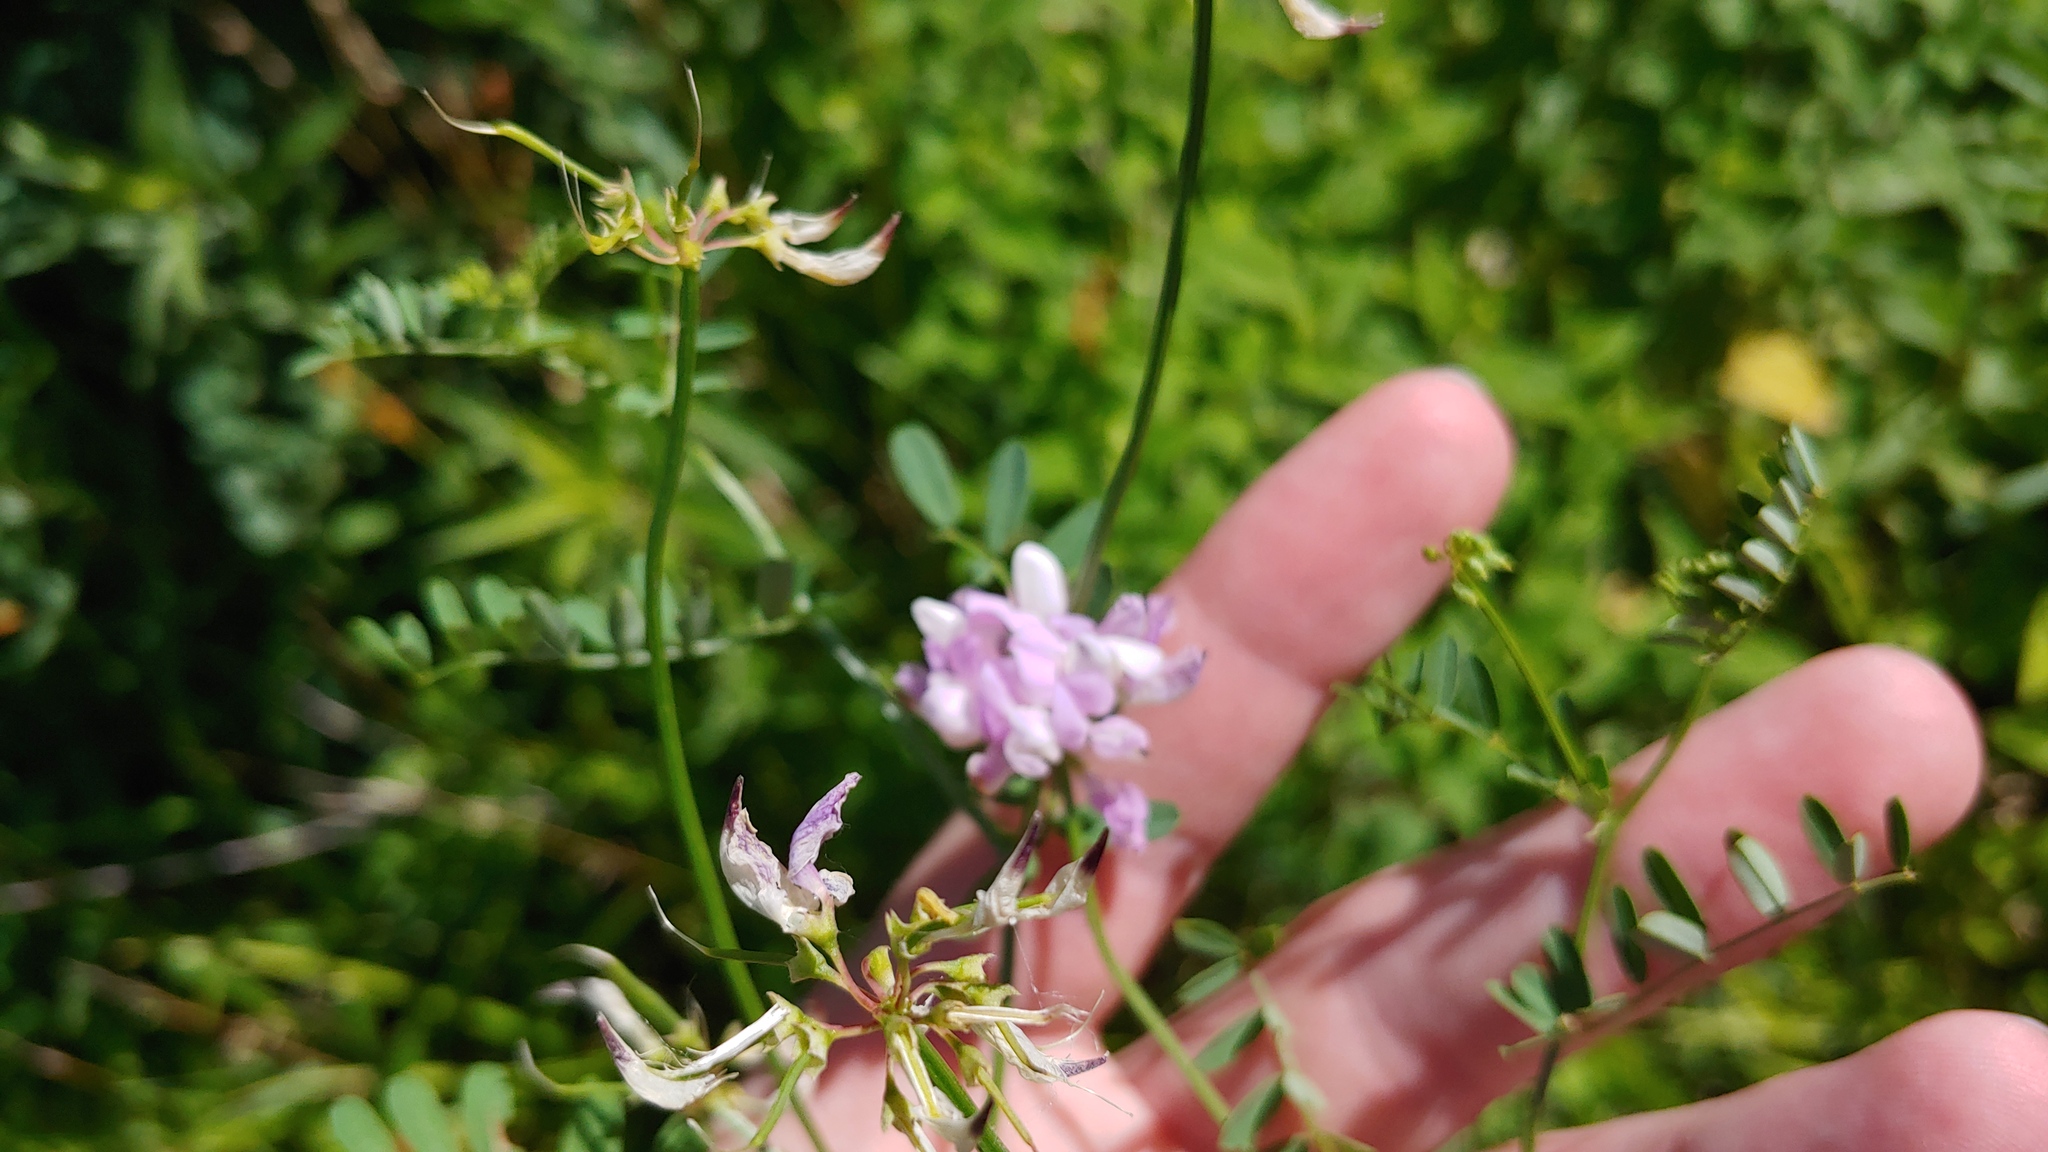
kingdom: Plantae
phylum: Tracheophyta
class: Magnoliopsida
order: Fabales
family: Fabaceae
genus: Coronilla
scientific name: Coronilla varia
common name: Crownvetch
